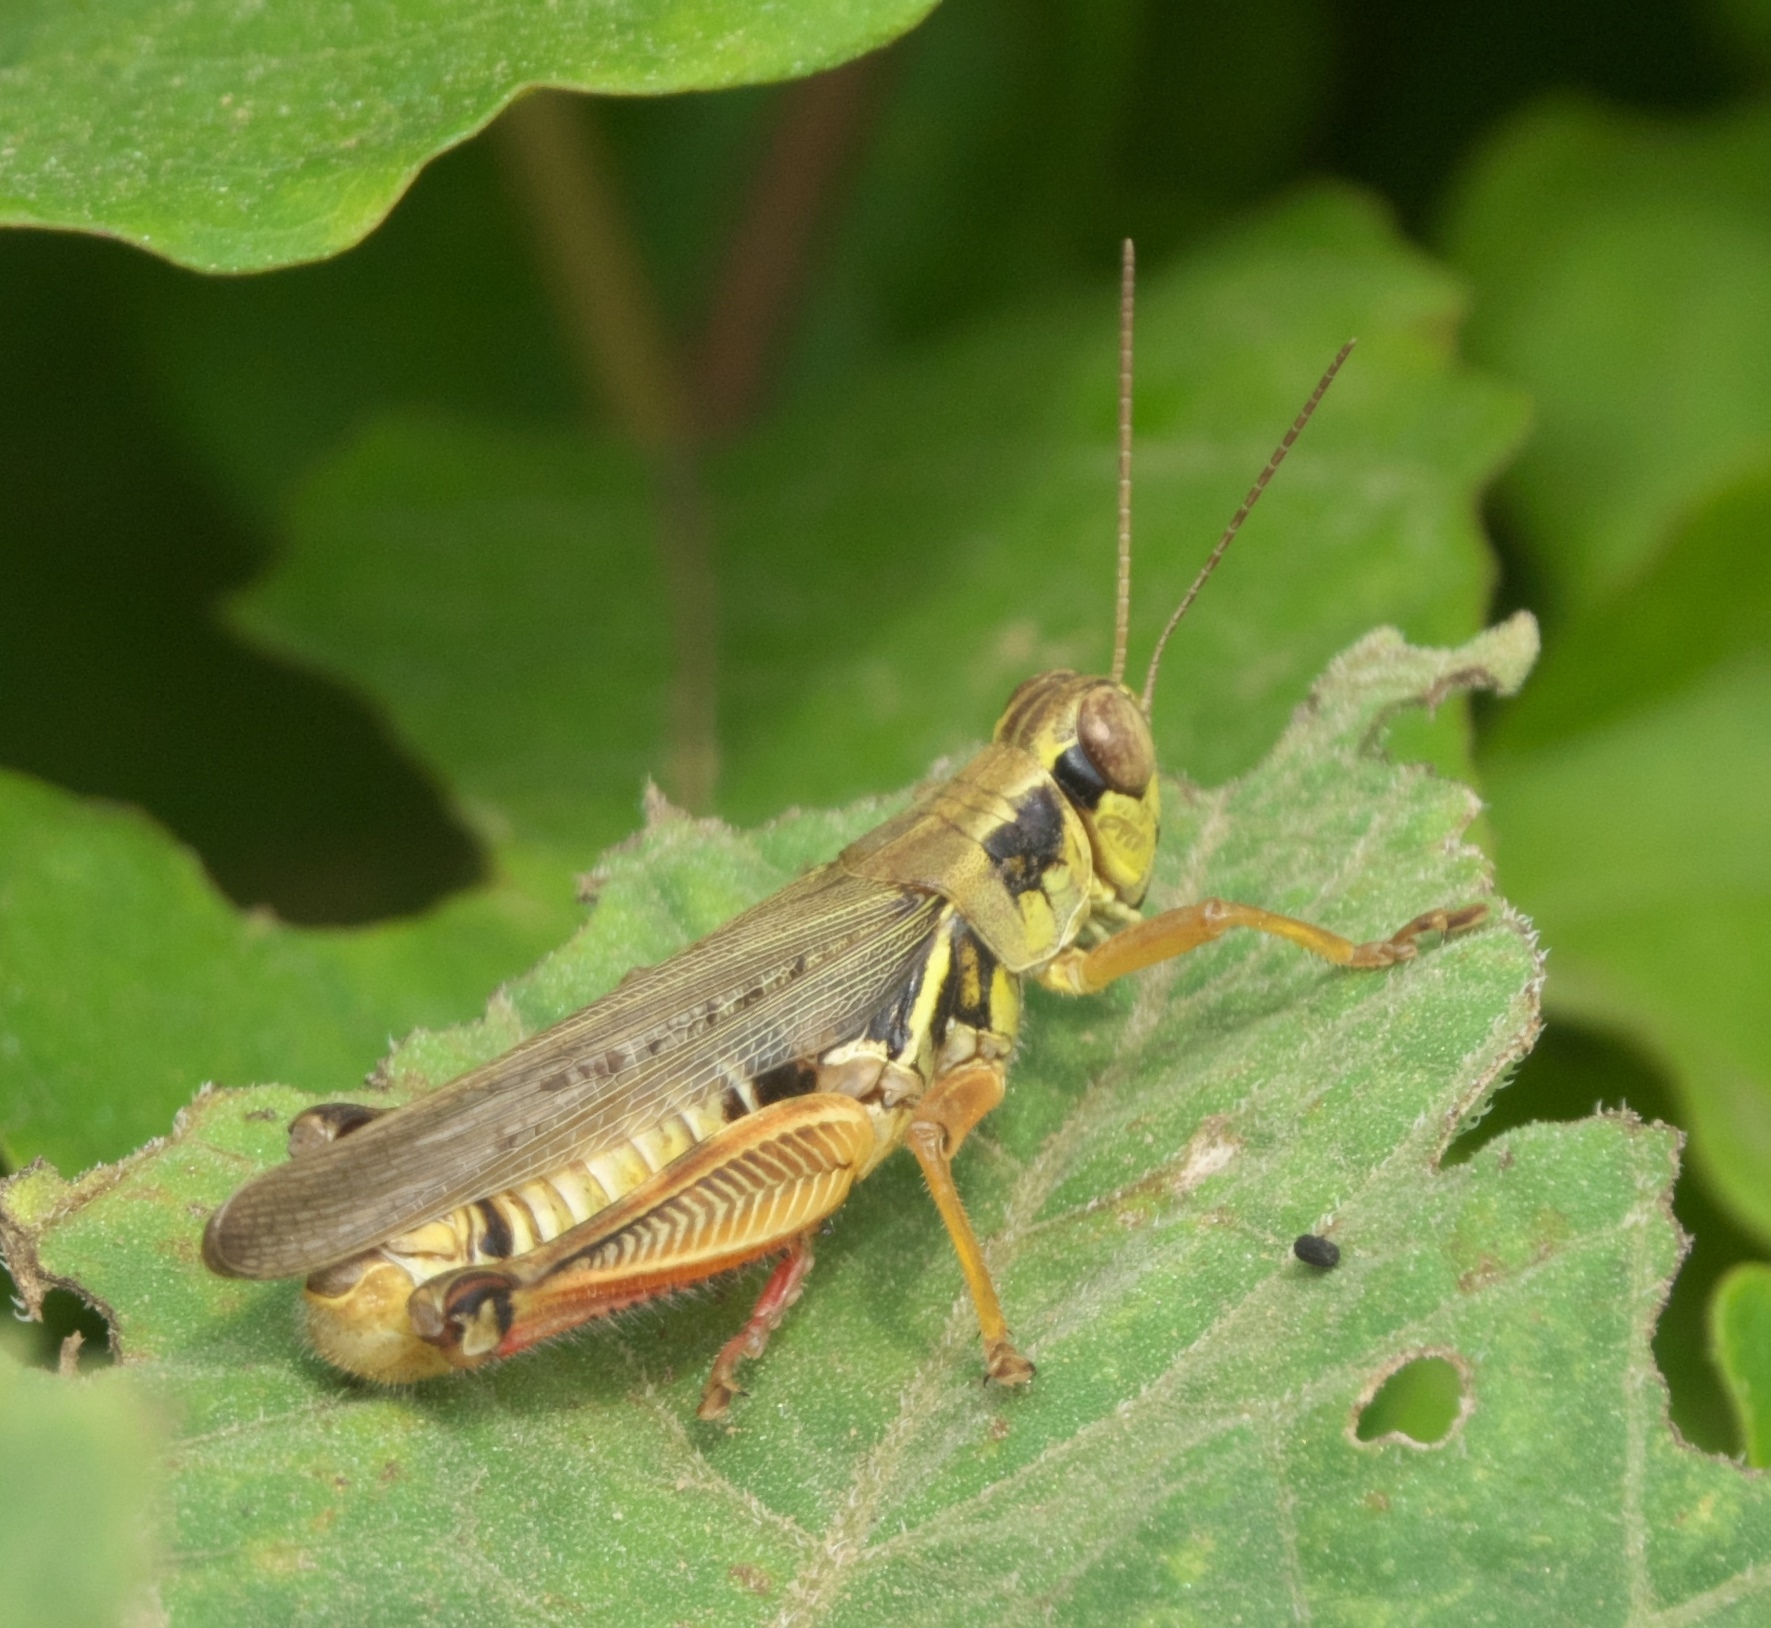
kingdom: Animalia
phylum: Arthropoda
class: Insecta
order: Orthoptera
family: Acrididae
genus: Melanoplus
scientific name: Melanoplus femurrubrum
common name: Red-legged grasshopper
